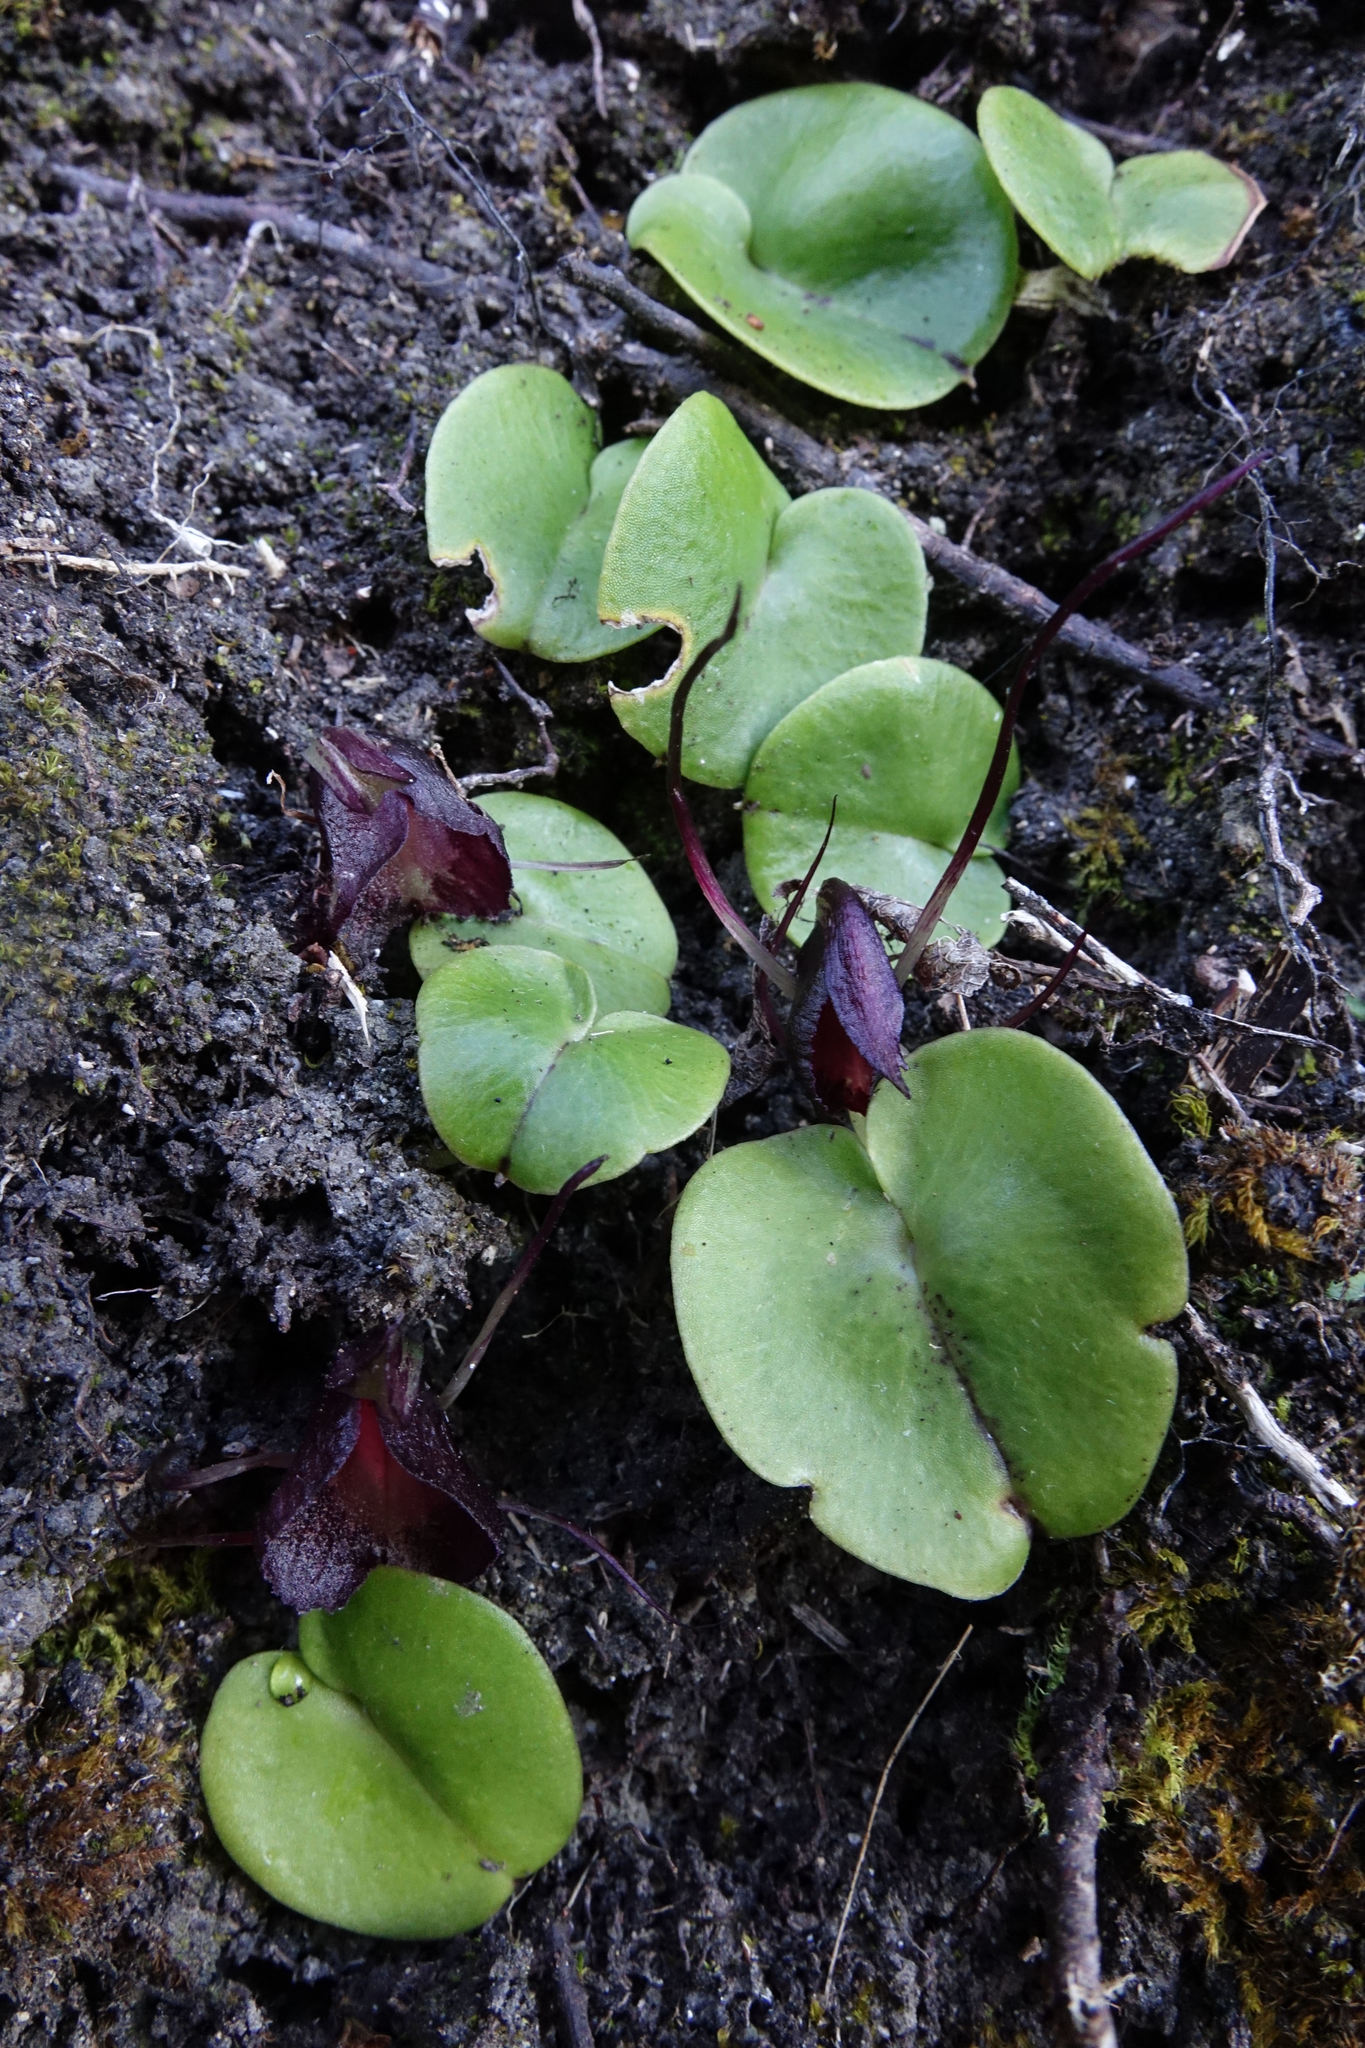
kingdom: Plantae
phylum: Tracheophyta
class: Liliopsida
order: Asparagales
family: Orchidaceae
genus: Corybas
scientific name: Corybas macranthus
